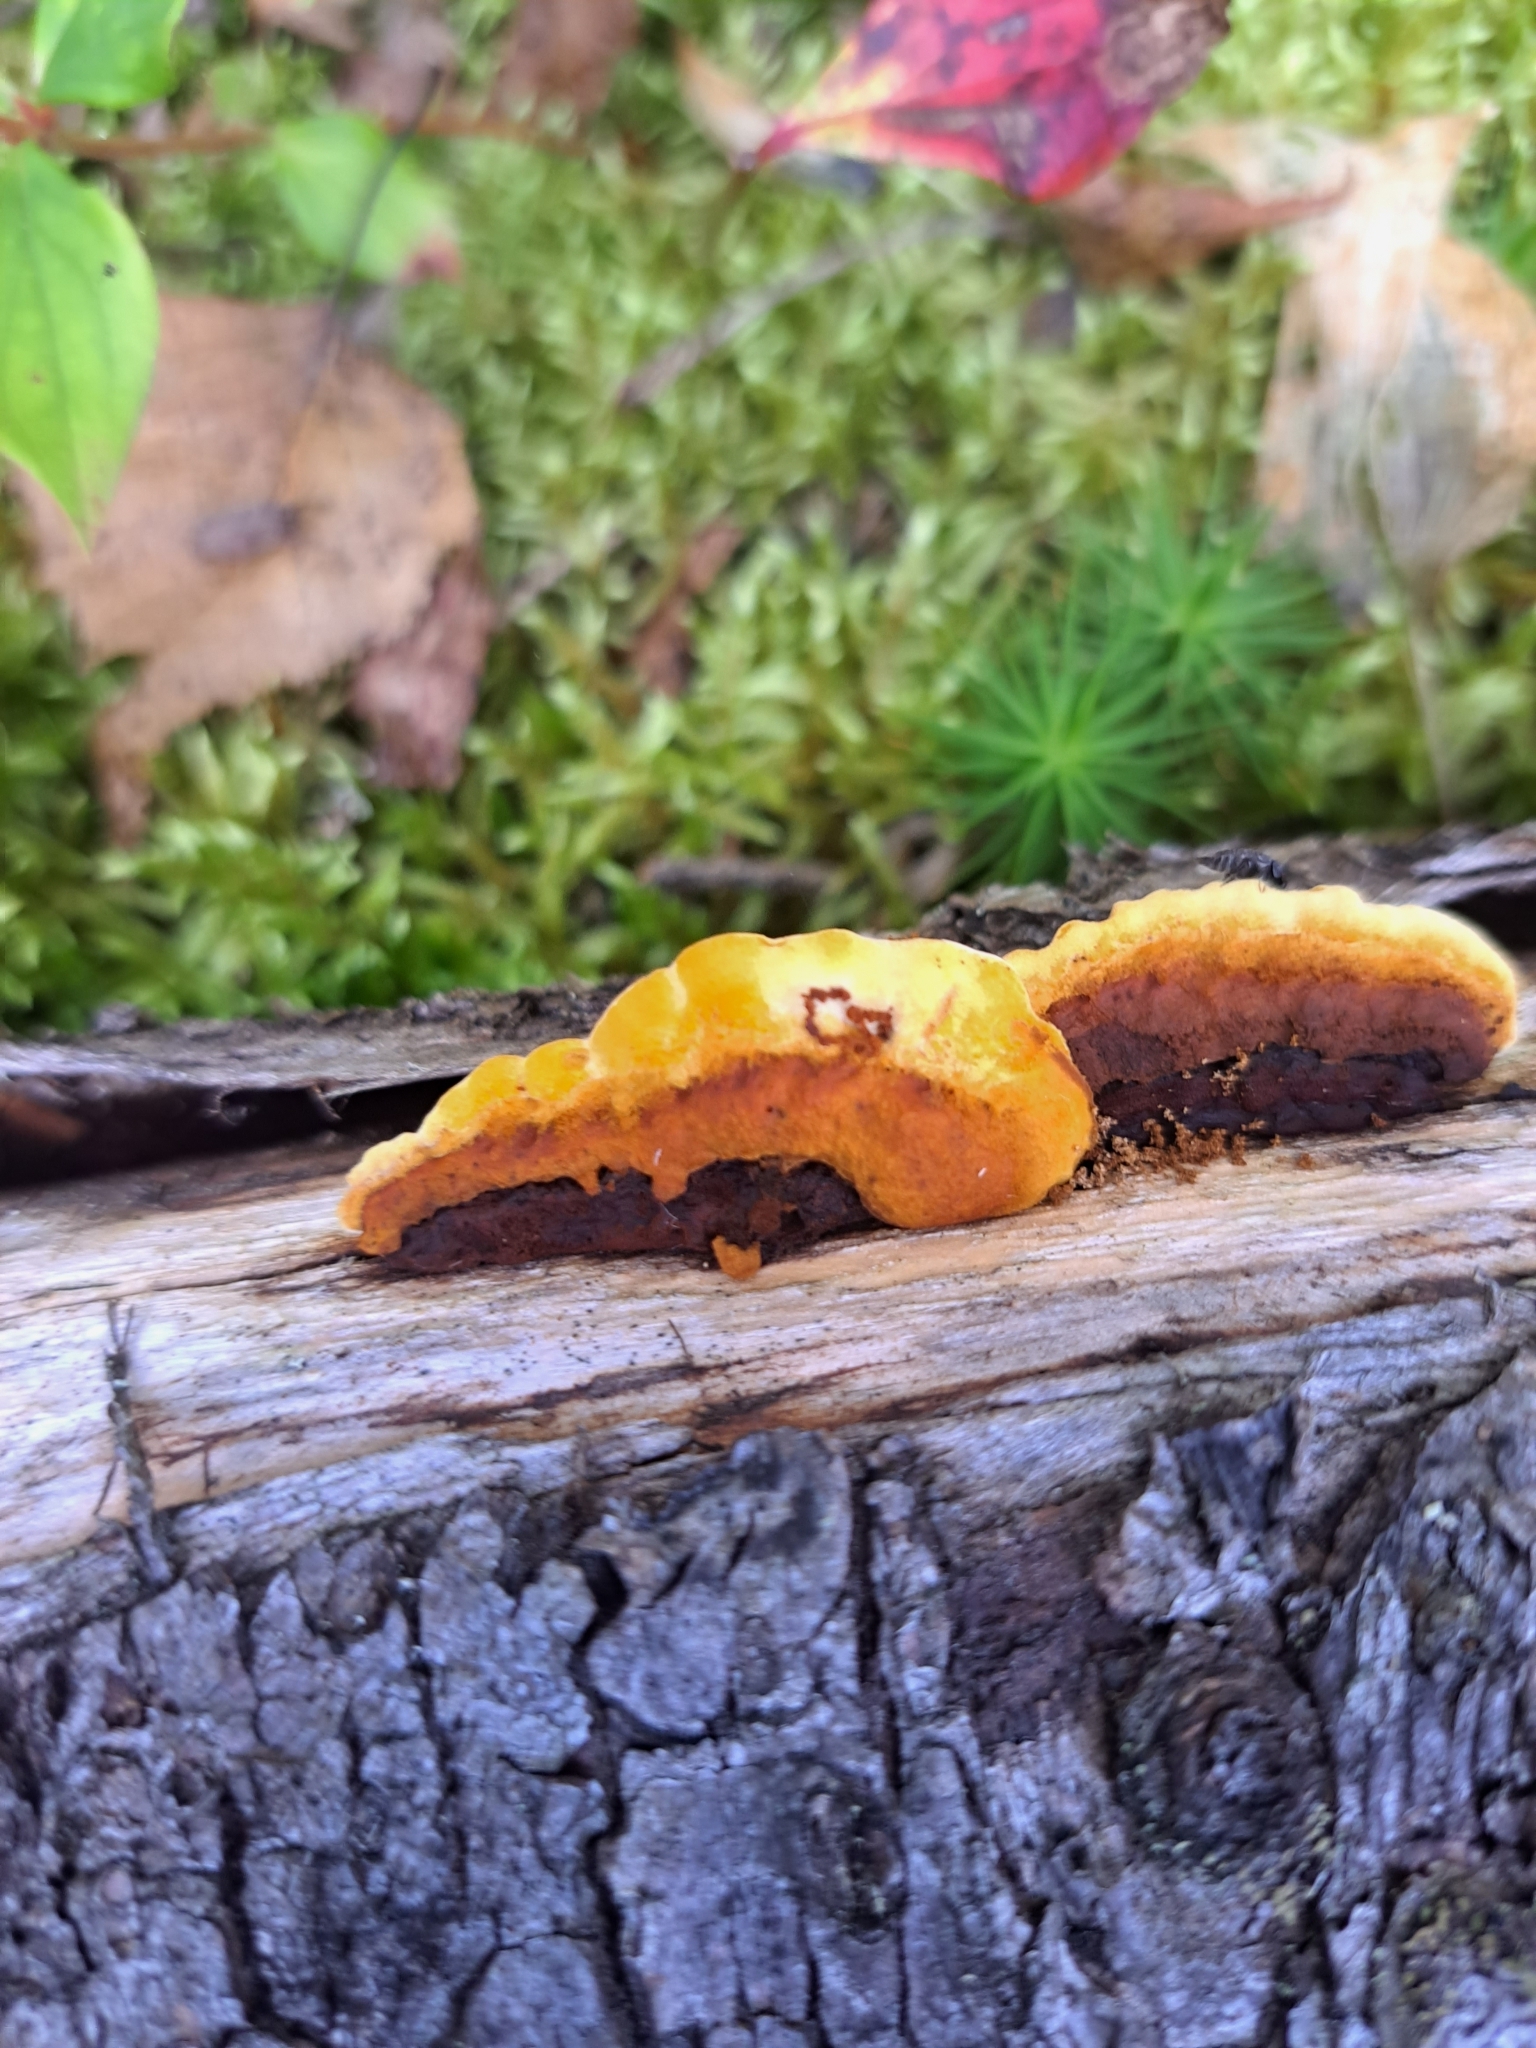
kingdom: Fungi
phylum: Basidiomycota
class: Agaricomycetes
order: Gloeophyllales
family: Gloeophyllaceae
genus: Gloeophyllum
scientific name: Gloeophyllum sepiarium
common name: Conifer mazegill
